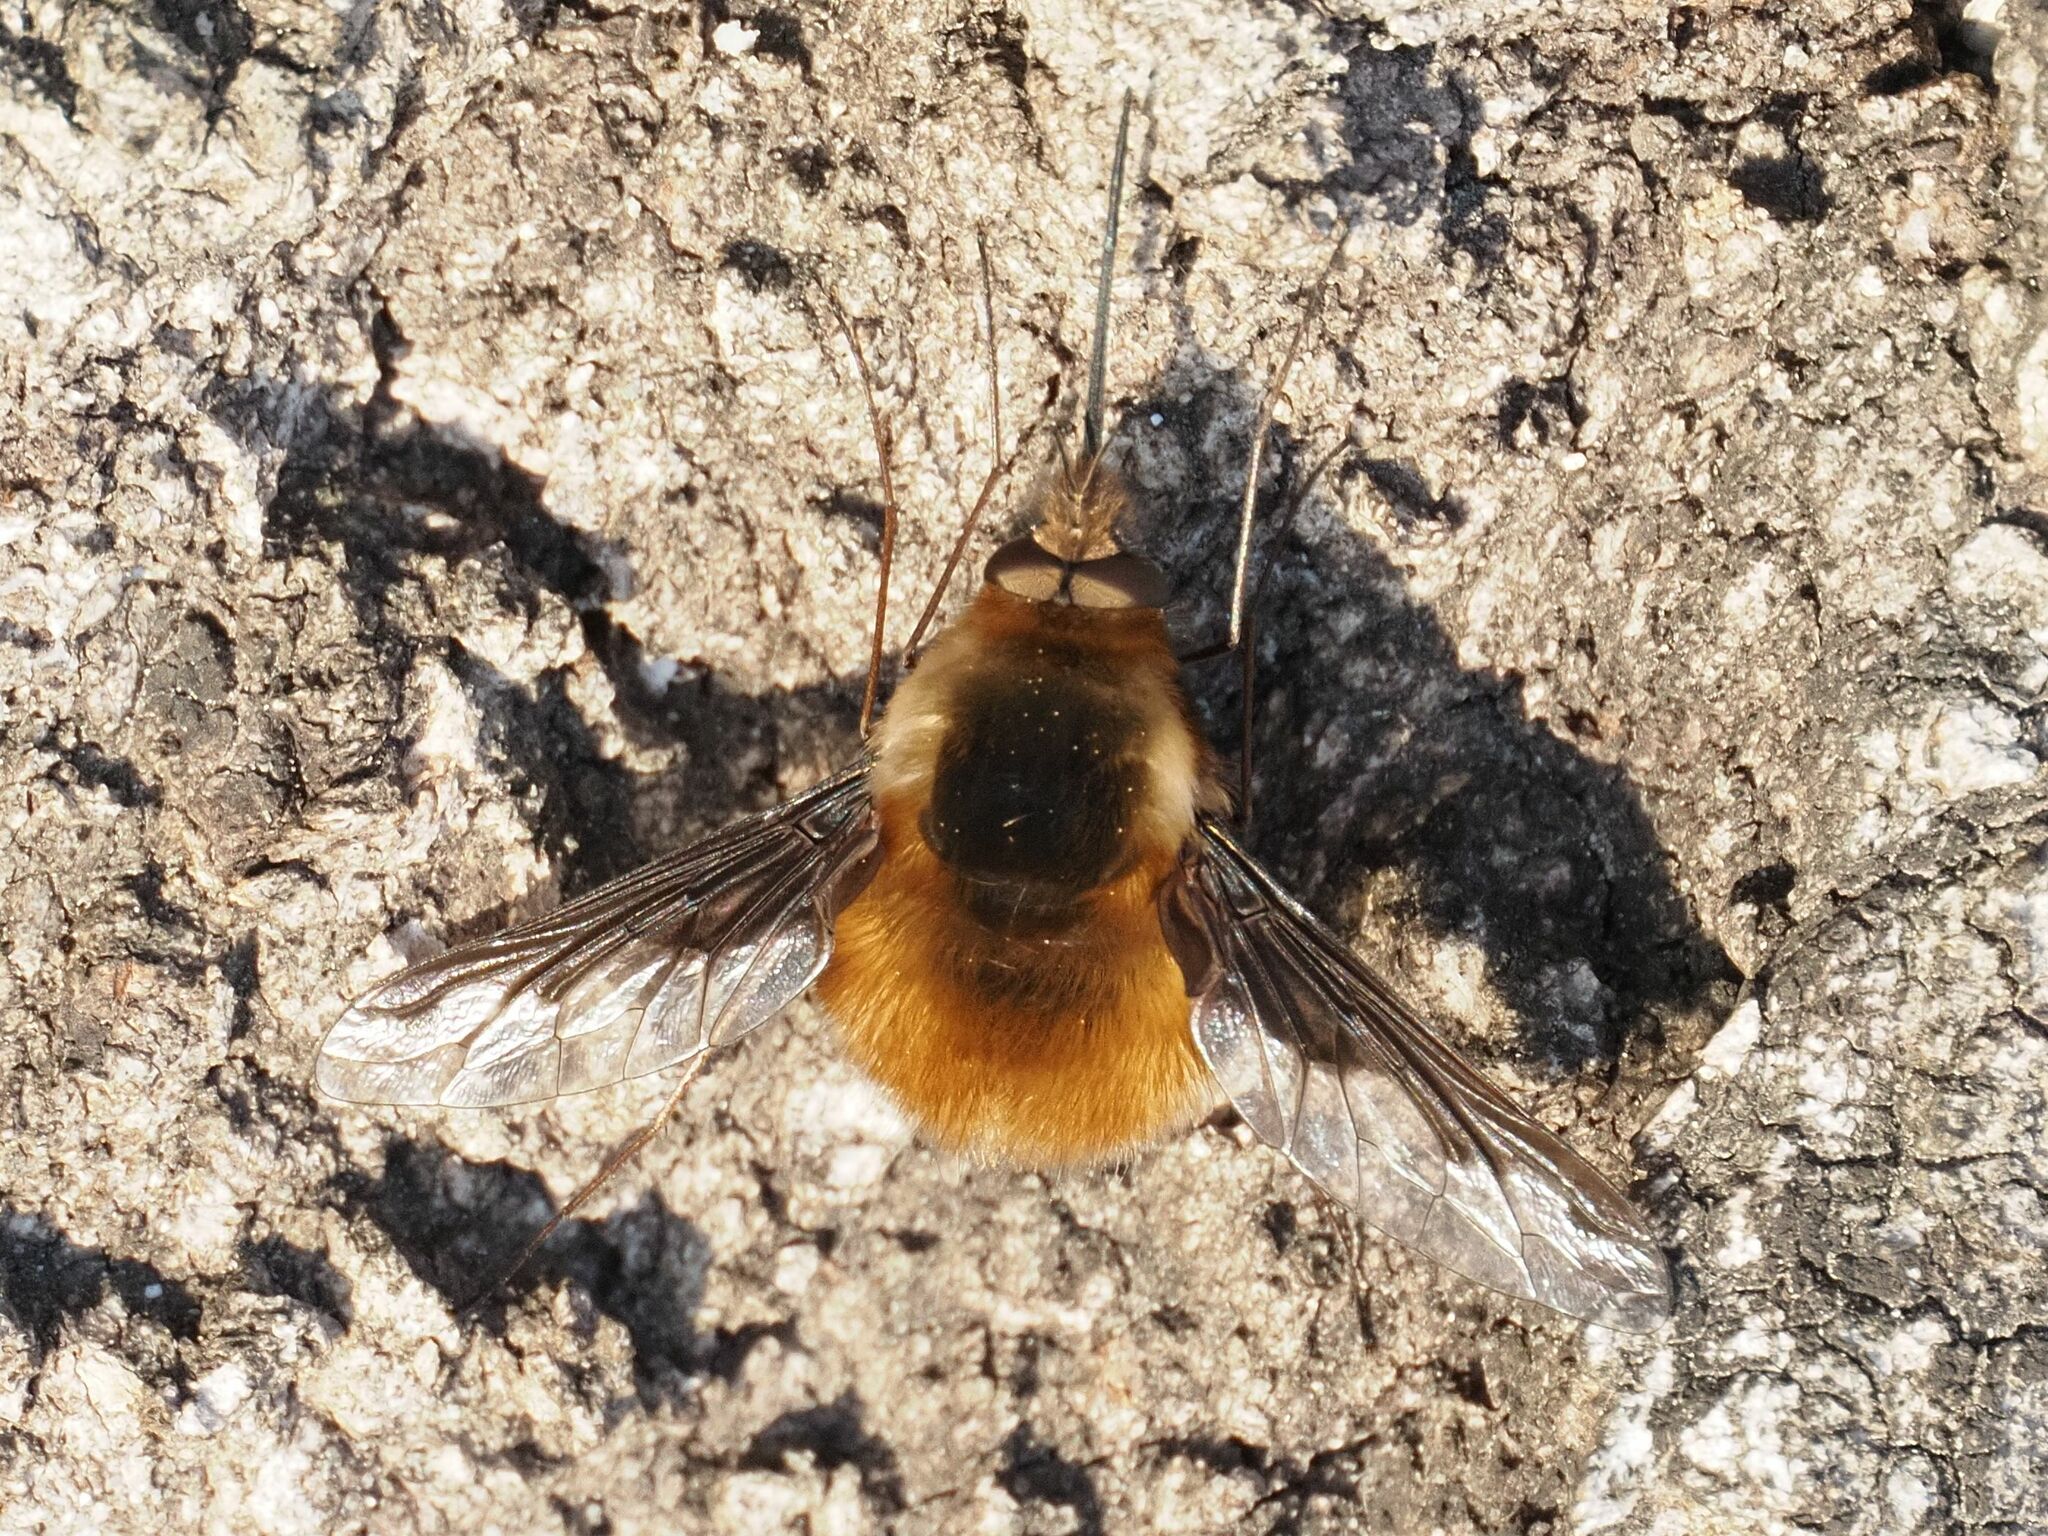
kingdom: Animalia
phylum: Arthropoda
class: Insecta
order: Diptera
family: Bombyliidae
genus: Bombylius
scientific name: Bombylius major
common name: Bee fly
